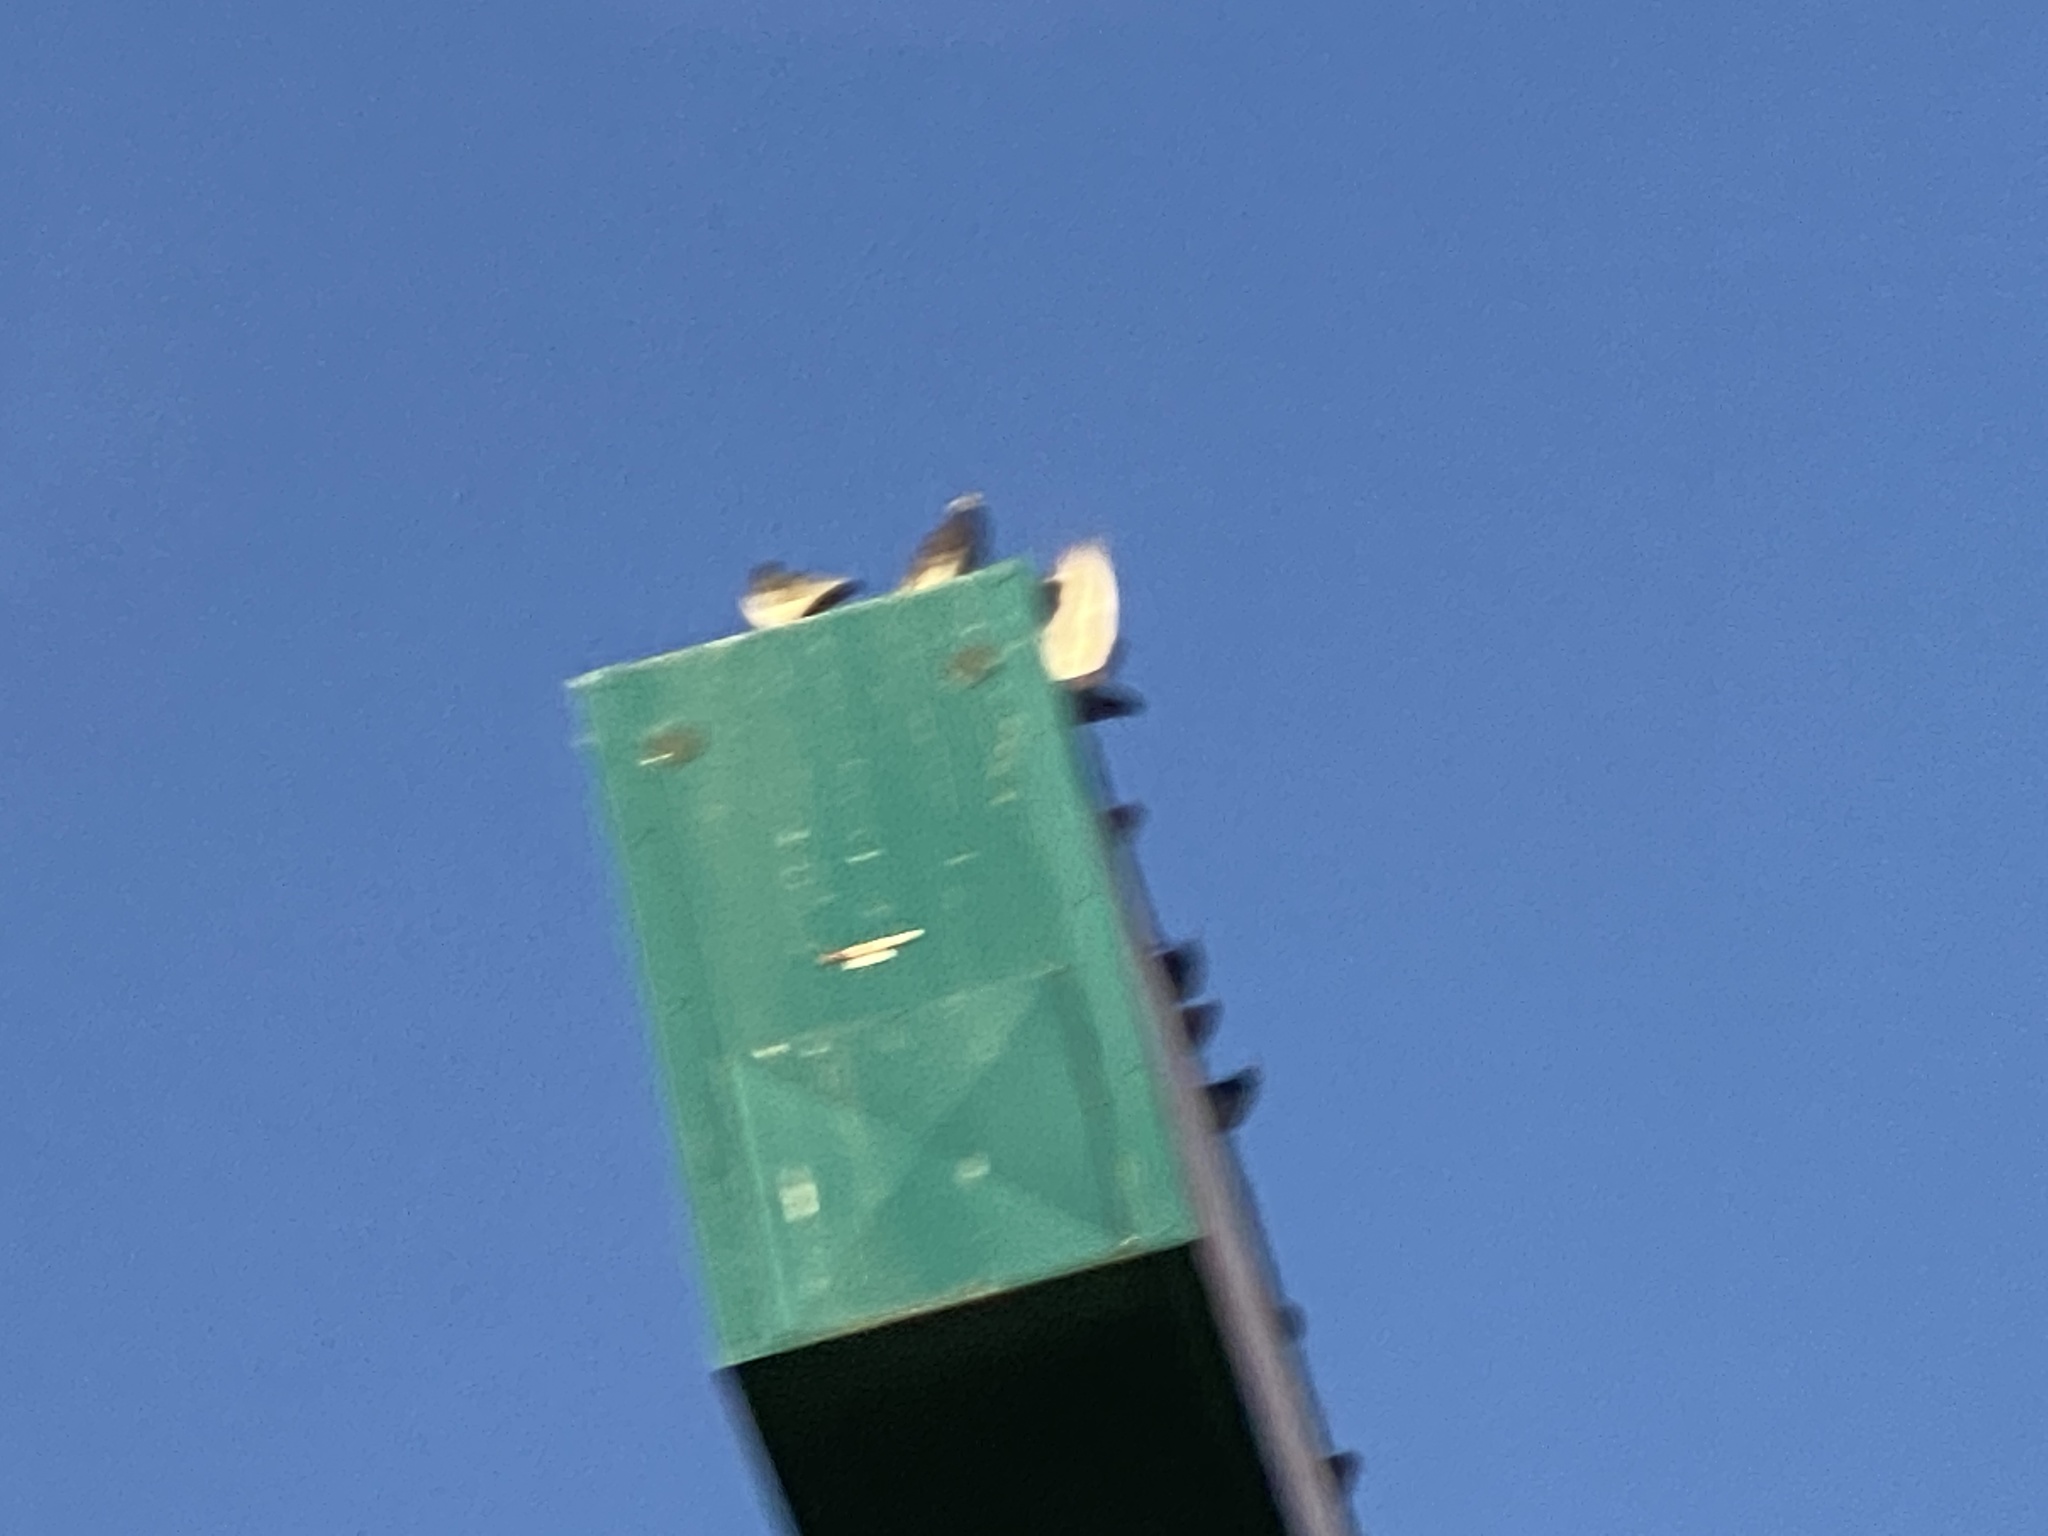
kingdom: Animalia
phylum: Chordata
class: Aves
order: Columbiformes
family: Columbidae
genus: Columba
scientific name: Columba livia
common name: Rock pigeon
